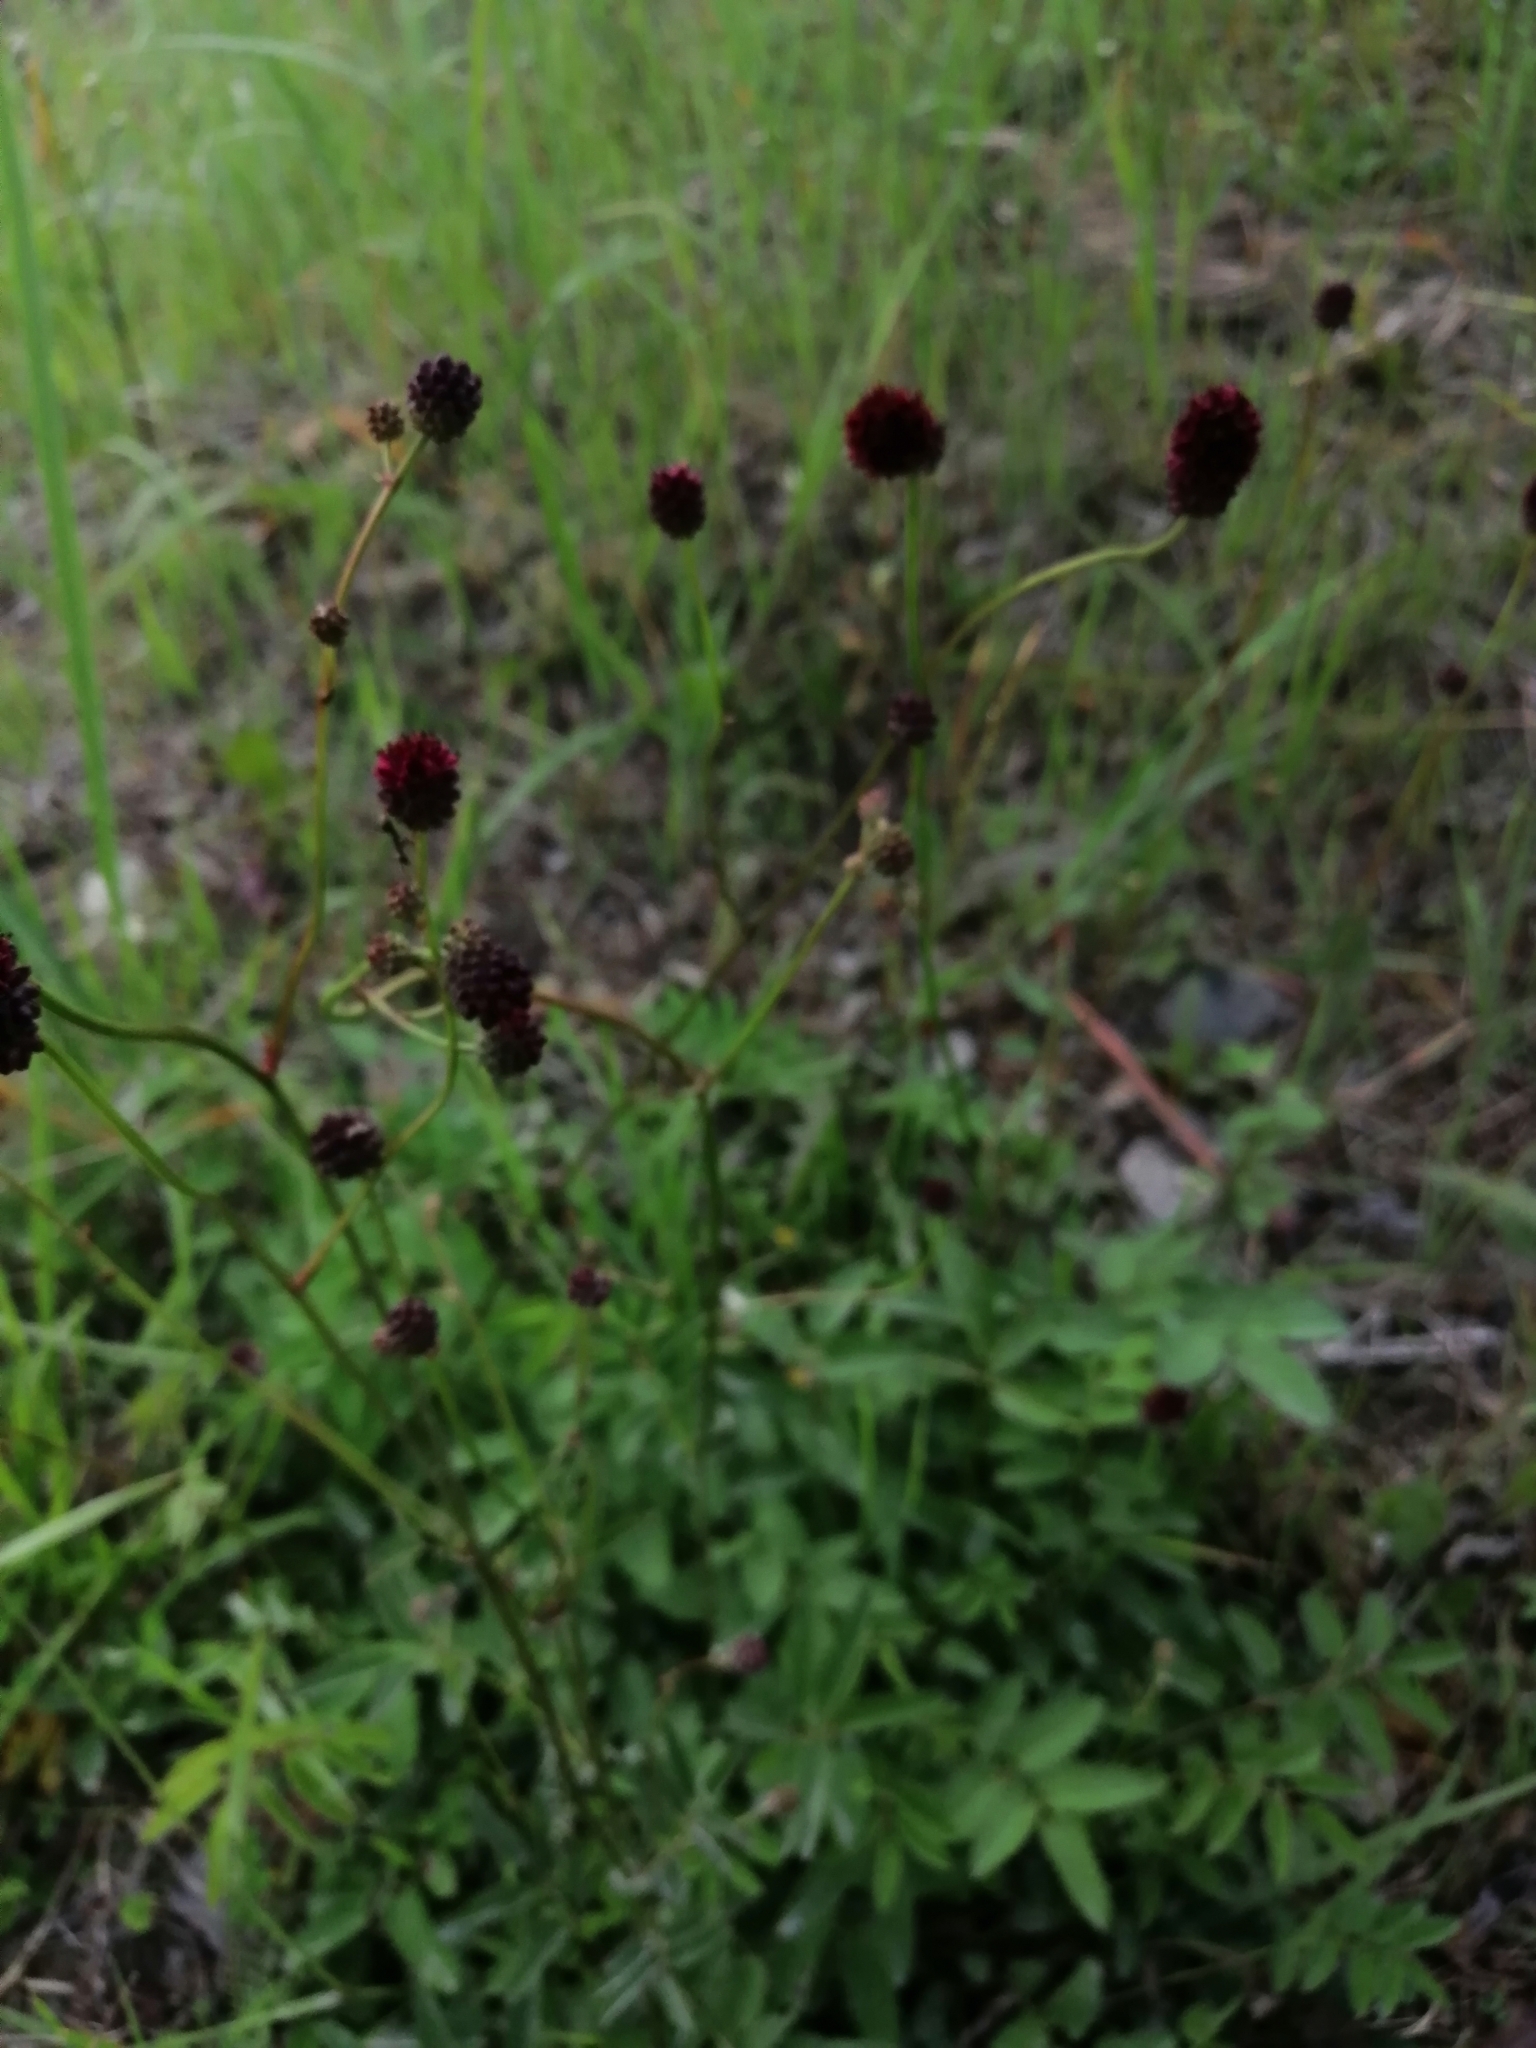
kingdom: Plantae
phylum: Tracheophyta
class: Magnoliopsida
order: Rosales
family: Rosaceae
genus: Sanguisorba
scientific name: Sanguisorba officinalis
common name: Great burnet
